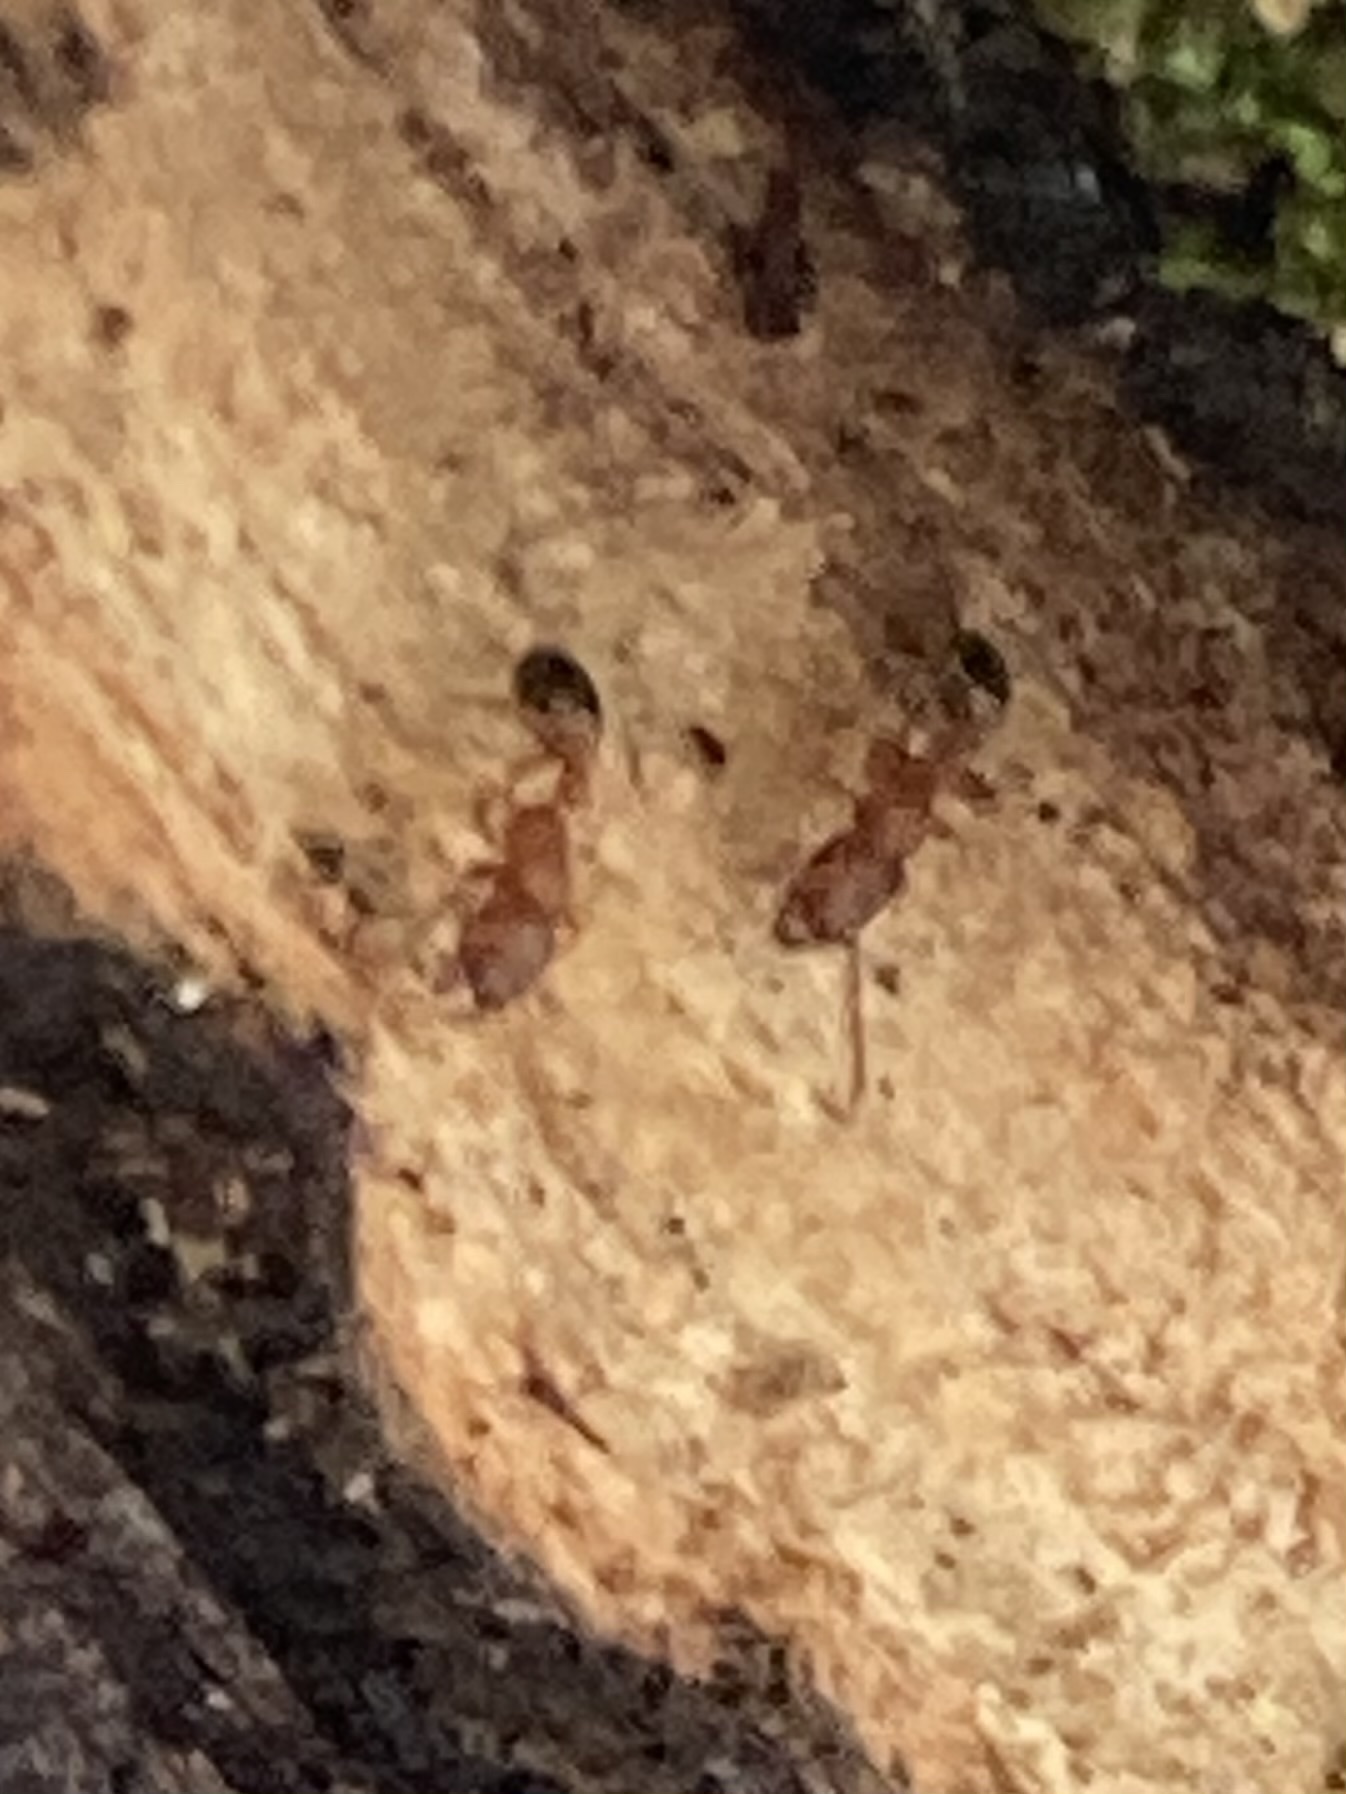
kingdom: Animalia
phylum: Arthropoda
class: Insecta
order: Hymenoptera
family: Formicidae
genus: Tetramorium
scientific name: Tetramorium bicarinatum
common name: Guinea ant
